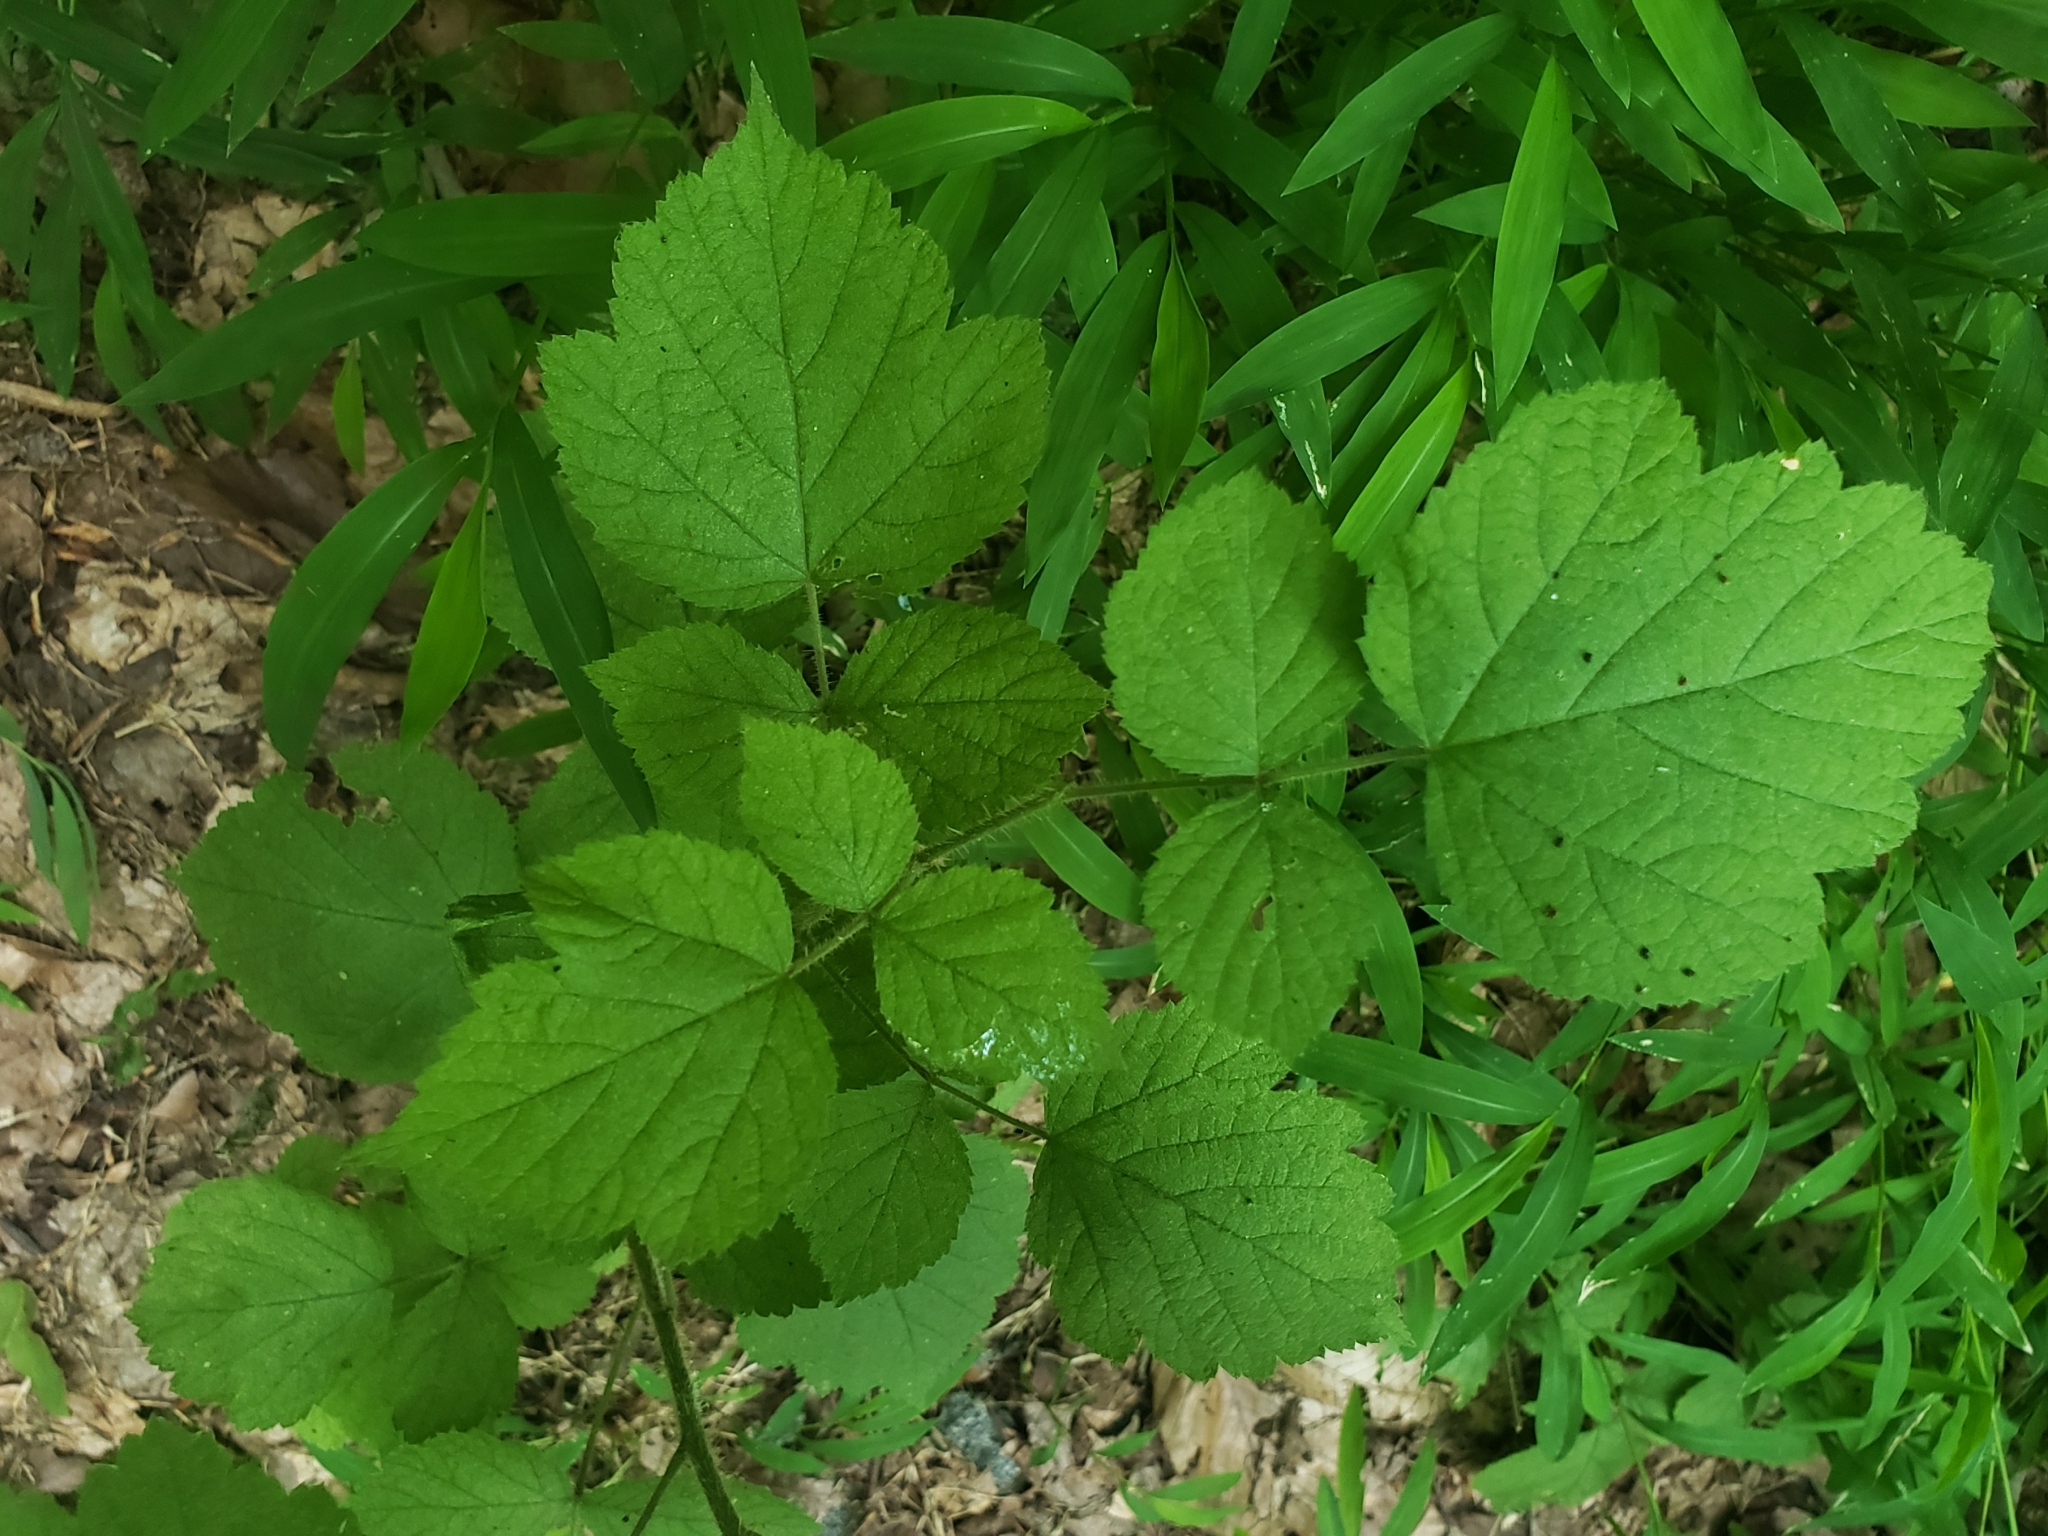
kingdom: Animalia
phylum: Arthropoda
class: Insecta
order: Lepidoptera
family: Nymphalidae
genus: Vanessa
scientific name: Vanessa atalanta
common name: Red admiral
